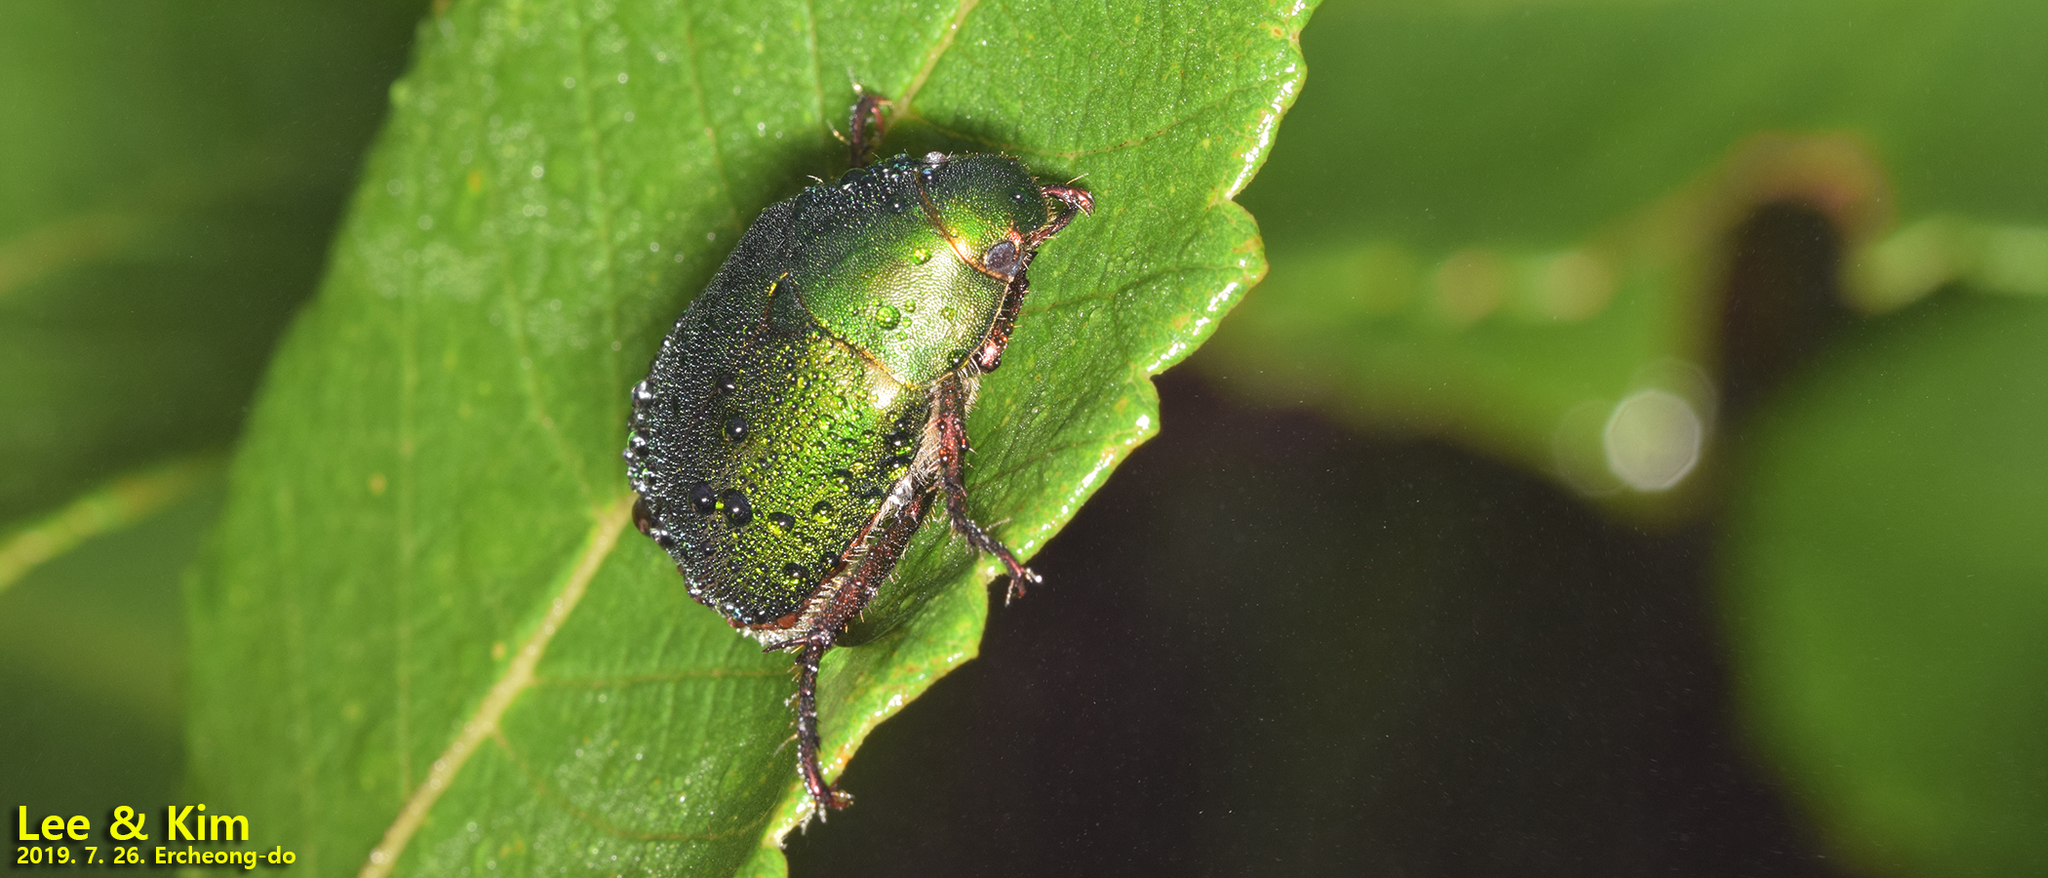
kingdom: Animalia
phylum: Arthropoda
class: Insecta
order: Coleoptera
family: Scarabaeidae
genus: Anomala
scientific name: Anomala albopilosa
